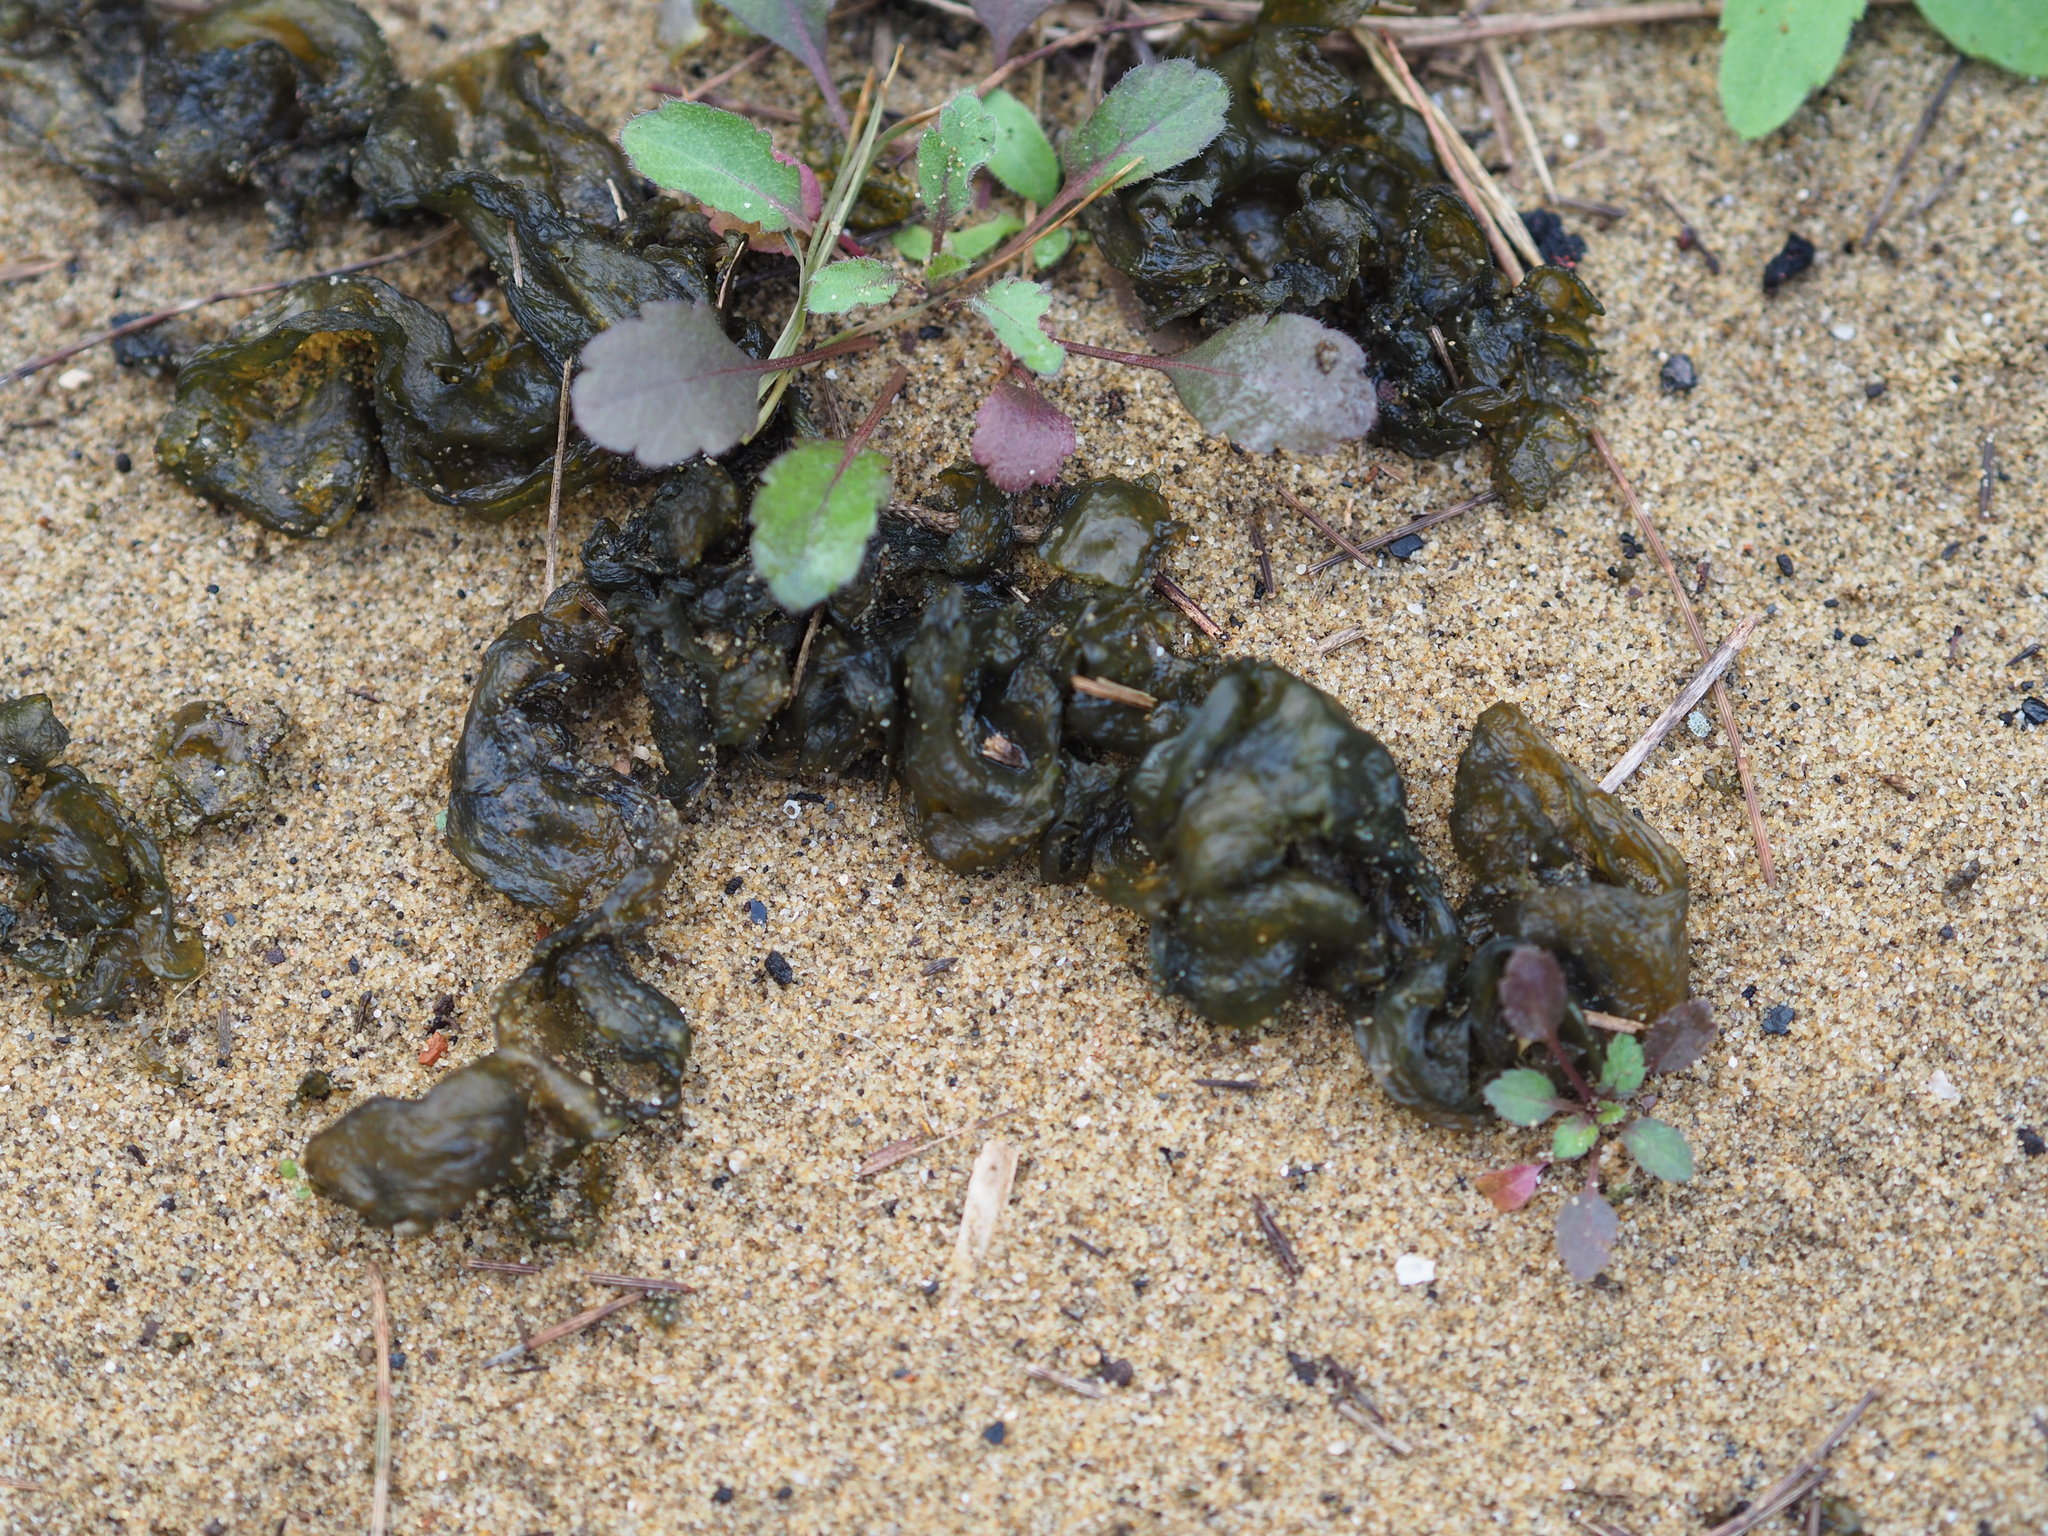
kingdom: Bacteria
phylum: Cyanobacteria
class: Cyanobacteriia
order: Cyanobacteriales
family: Nostocaceae
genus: Nostoc
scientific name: Nostoc commune
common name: Star jelly
